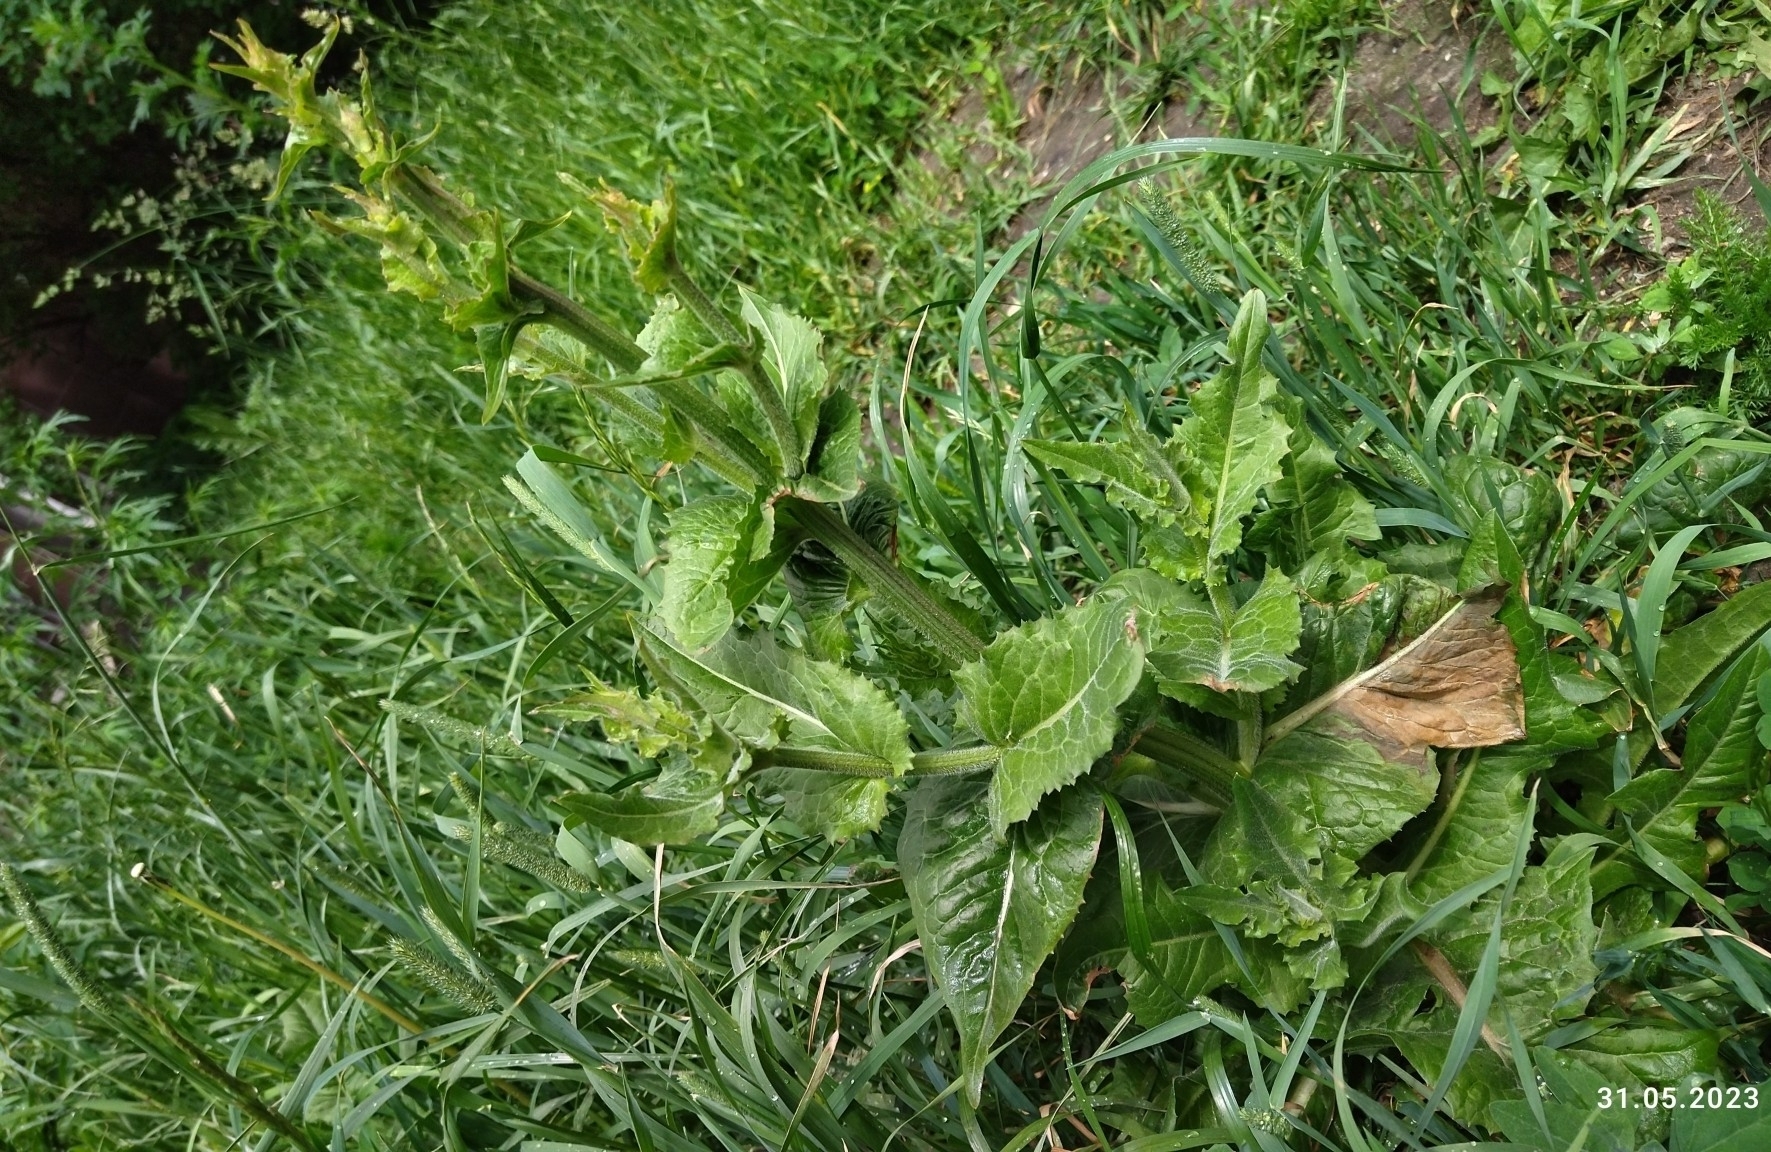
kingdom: Plantae
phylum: Tracheophyta
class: Magnoliopsida
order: Asterales
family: Asteraceae
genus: Cichorium
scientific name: Cichorium intybus
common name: Chicory
